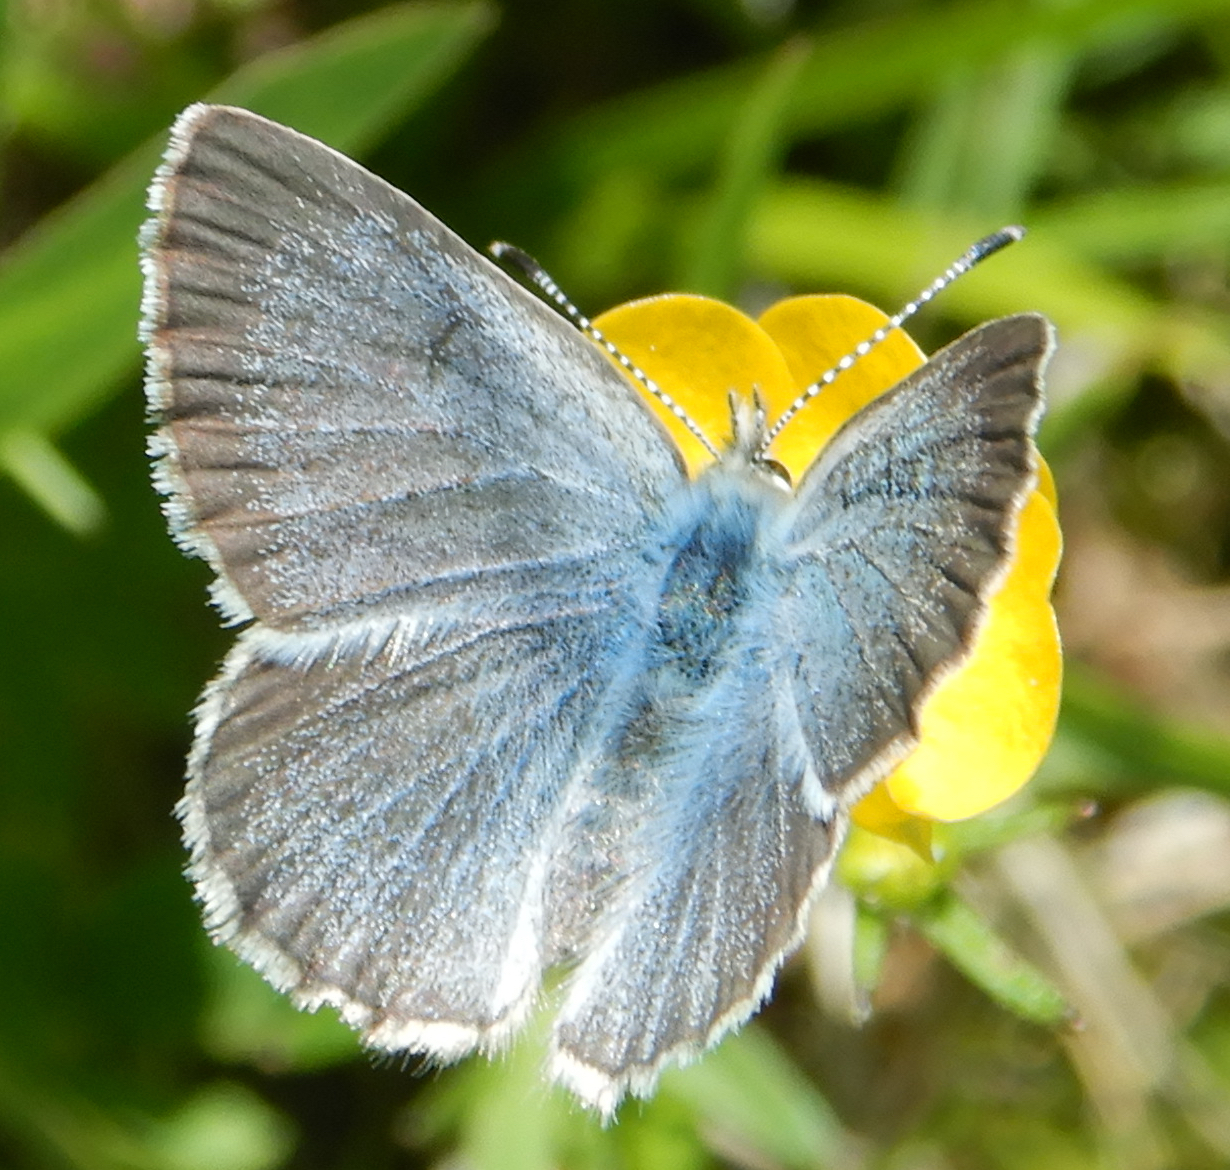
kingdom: Animalia
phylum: Arthropoda
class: Insecta
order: Lepidoptera
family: Lycaenidae
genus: Glaucopsyche
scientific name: Glaucopsyche lygdamus
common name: Silvery blue
